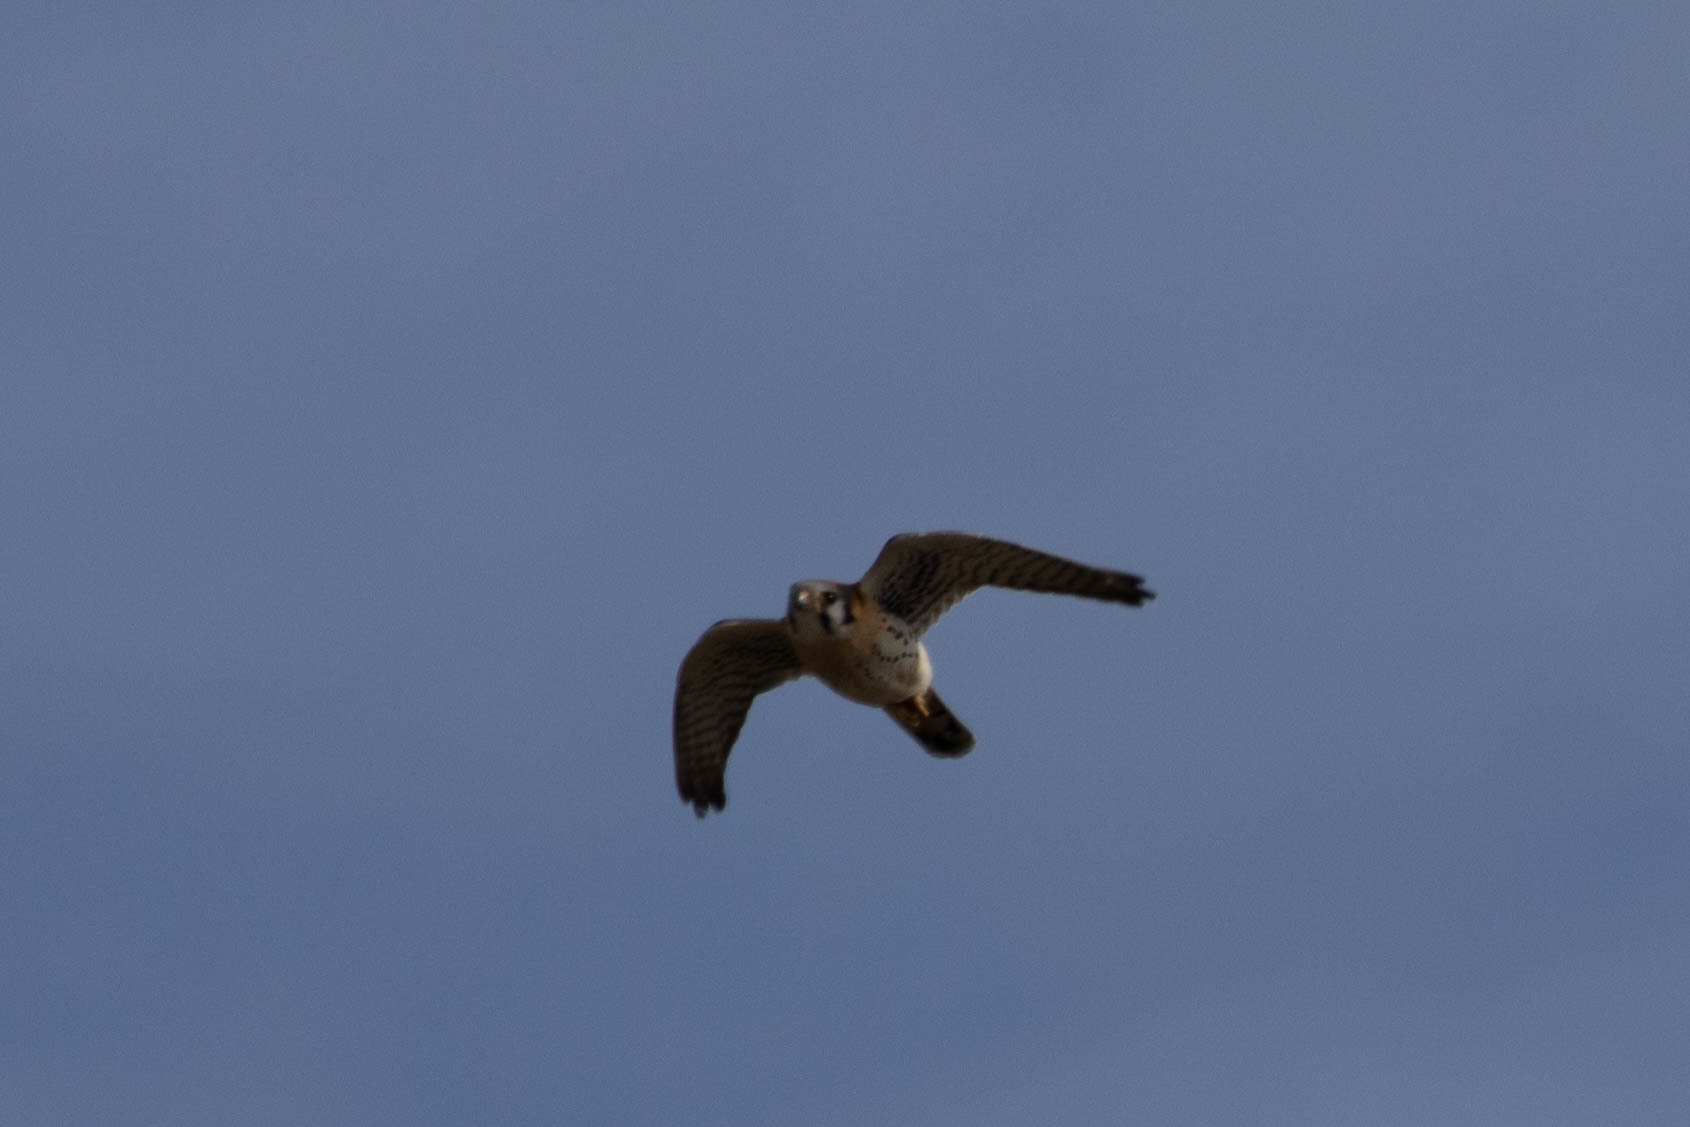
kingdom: Animalia
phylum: Chordata
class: Aves
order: Falconiformes
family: Falconidae
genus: Falco
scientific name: Falco sparverius
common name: American kestrel
